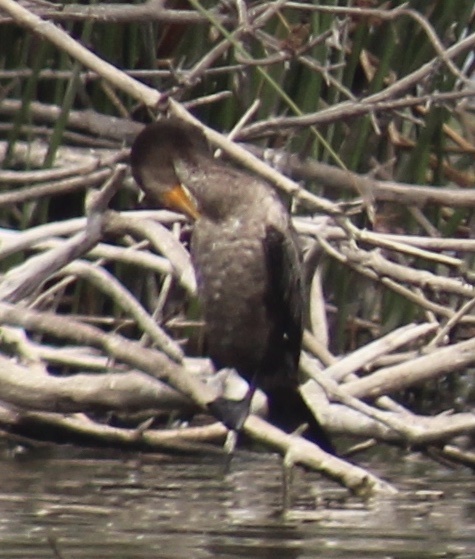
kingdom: Animalia
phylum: Chordata
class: Aves
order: Suliformes
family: Phalacrocoracidae
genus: Phalacrocorax
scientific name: Phalacrocorax auritus
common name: Double-crested cormorant
